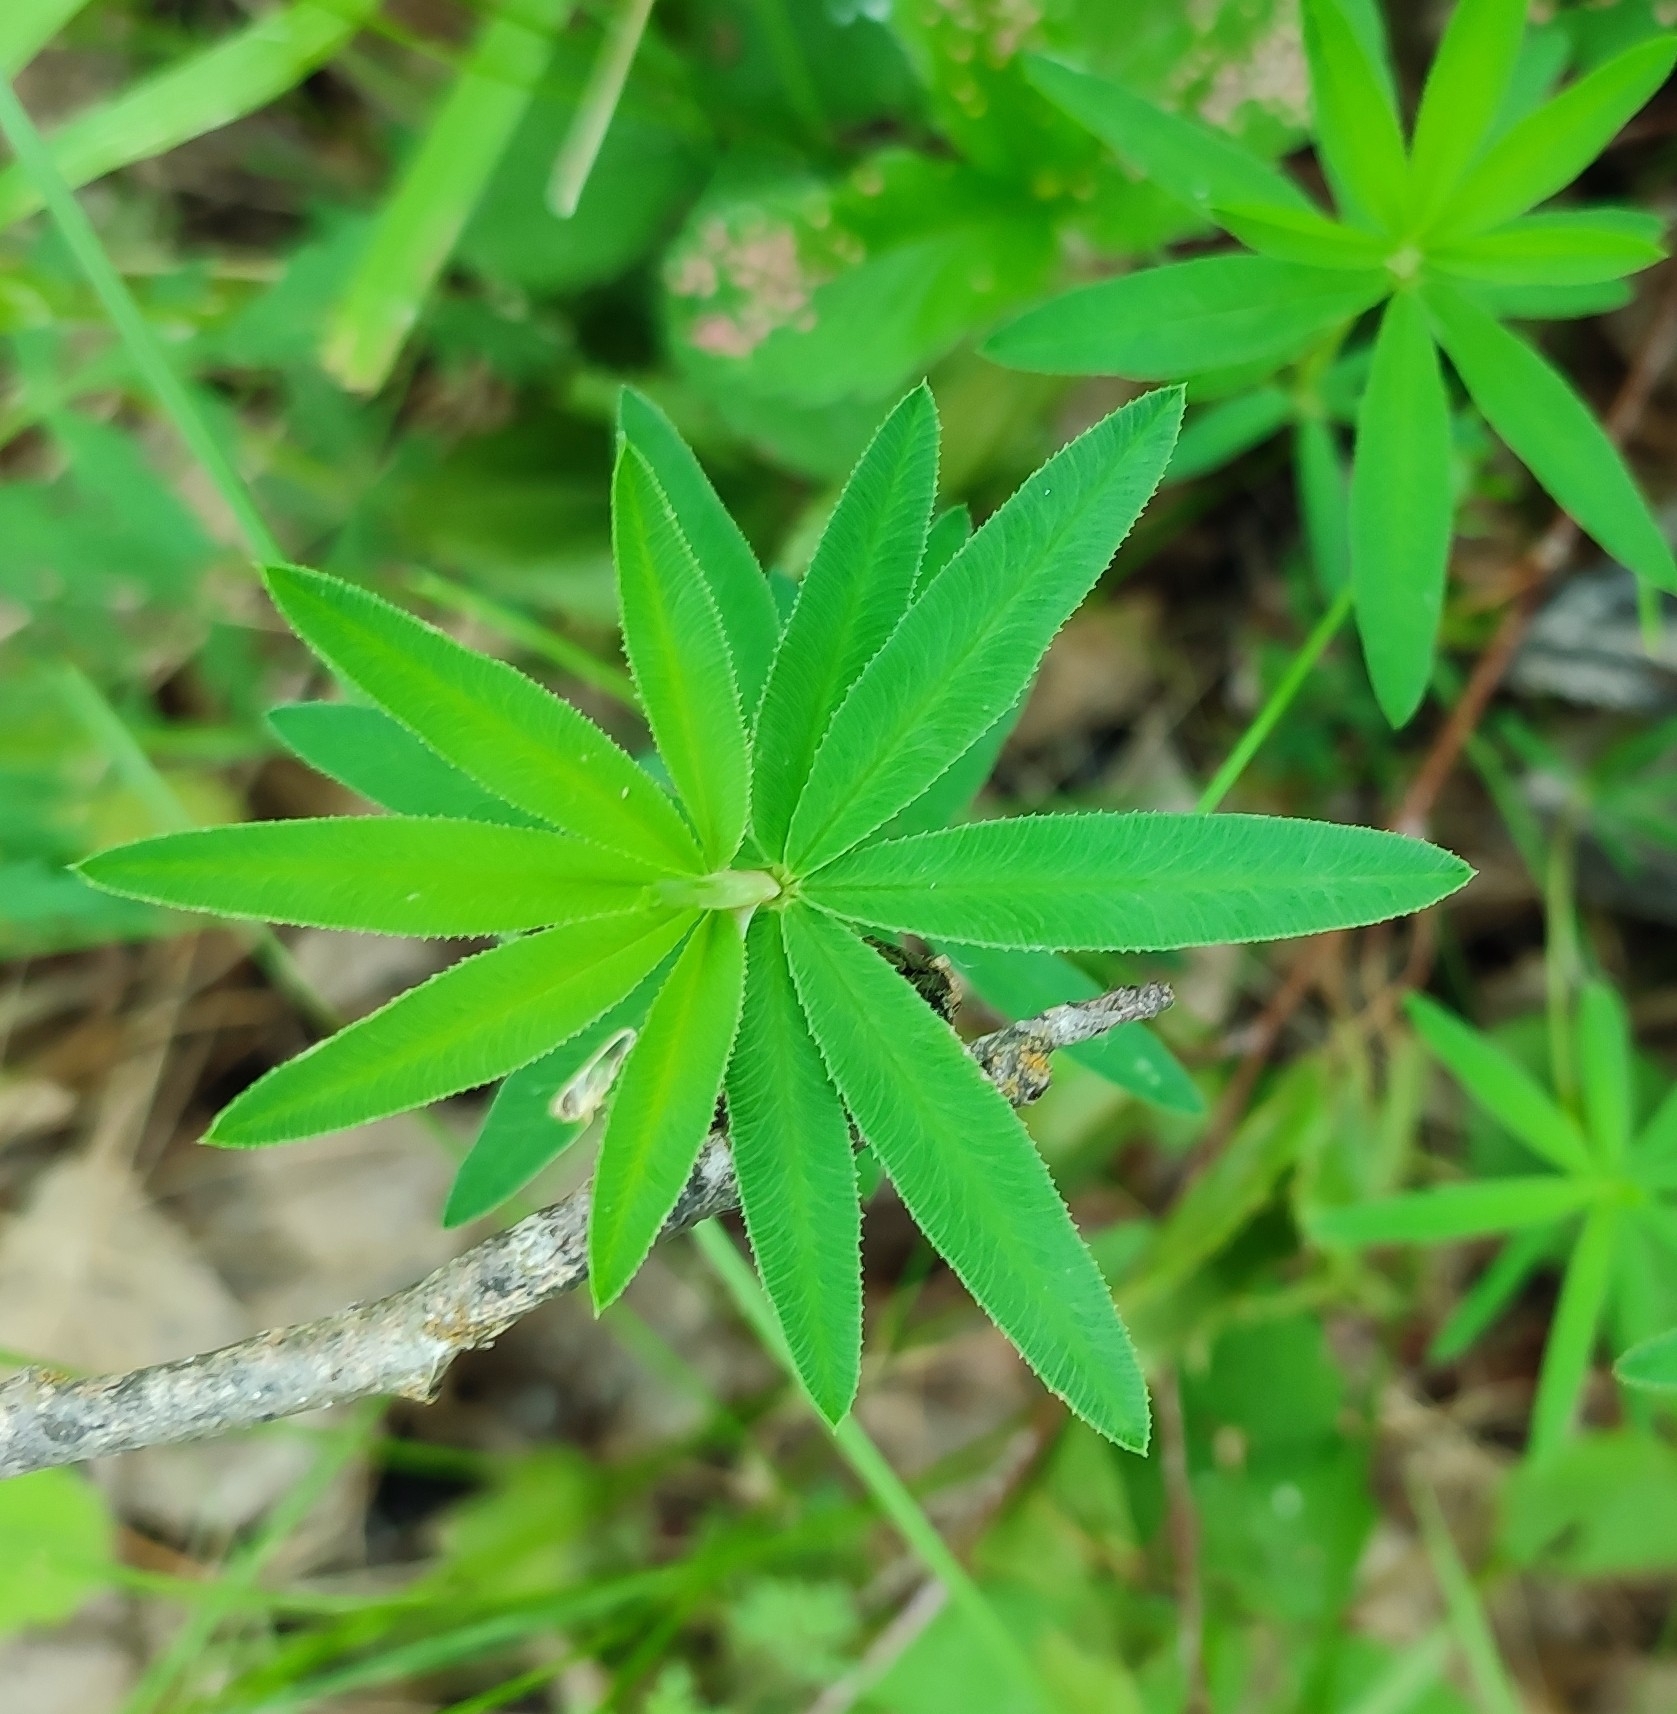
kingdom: Plantae
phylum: Tracheophyta
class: Magnoliopsida
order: Fabales
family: Fabaceae
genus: Trifolium
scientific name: Trifolium lupinaster
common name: Lupine clover
